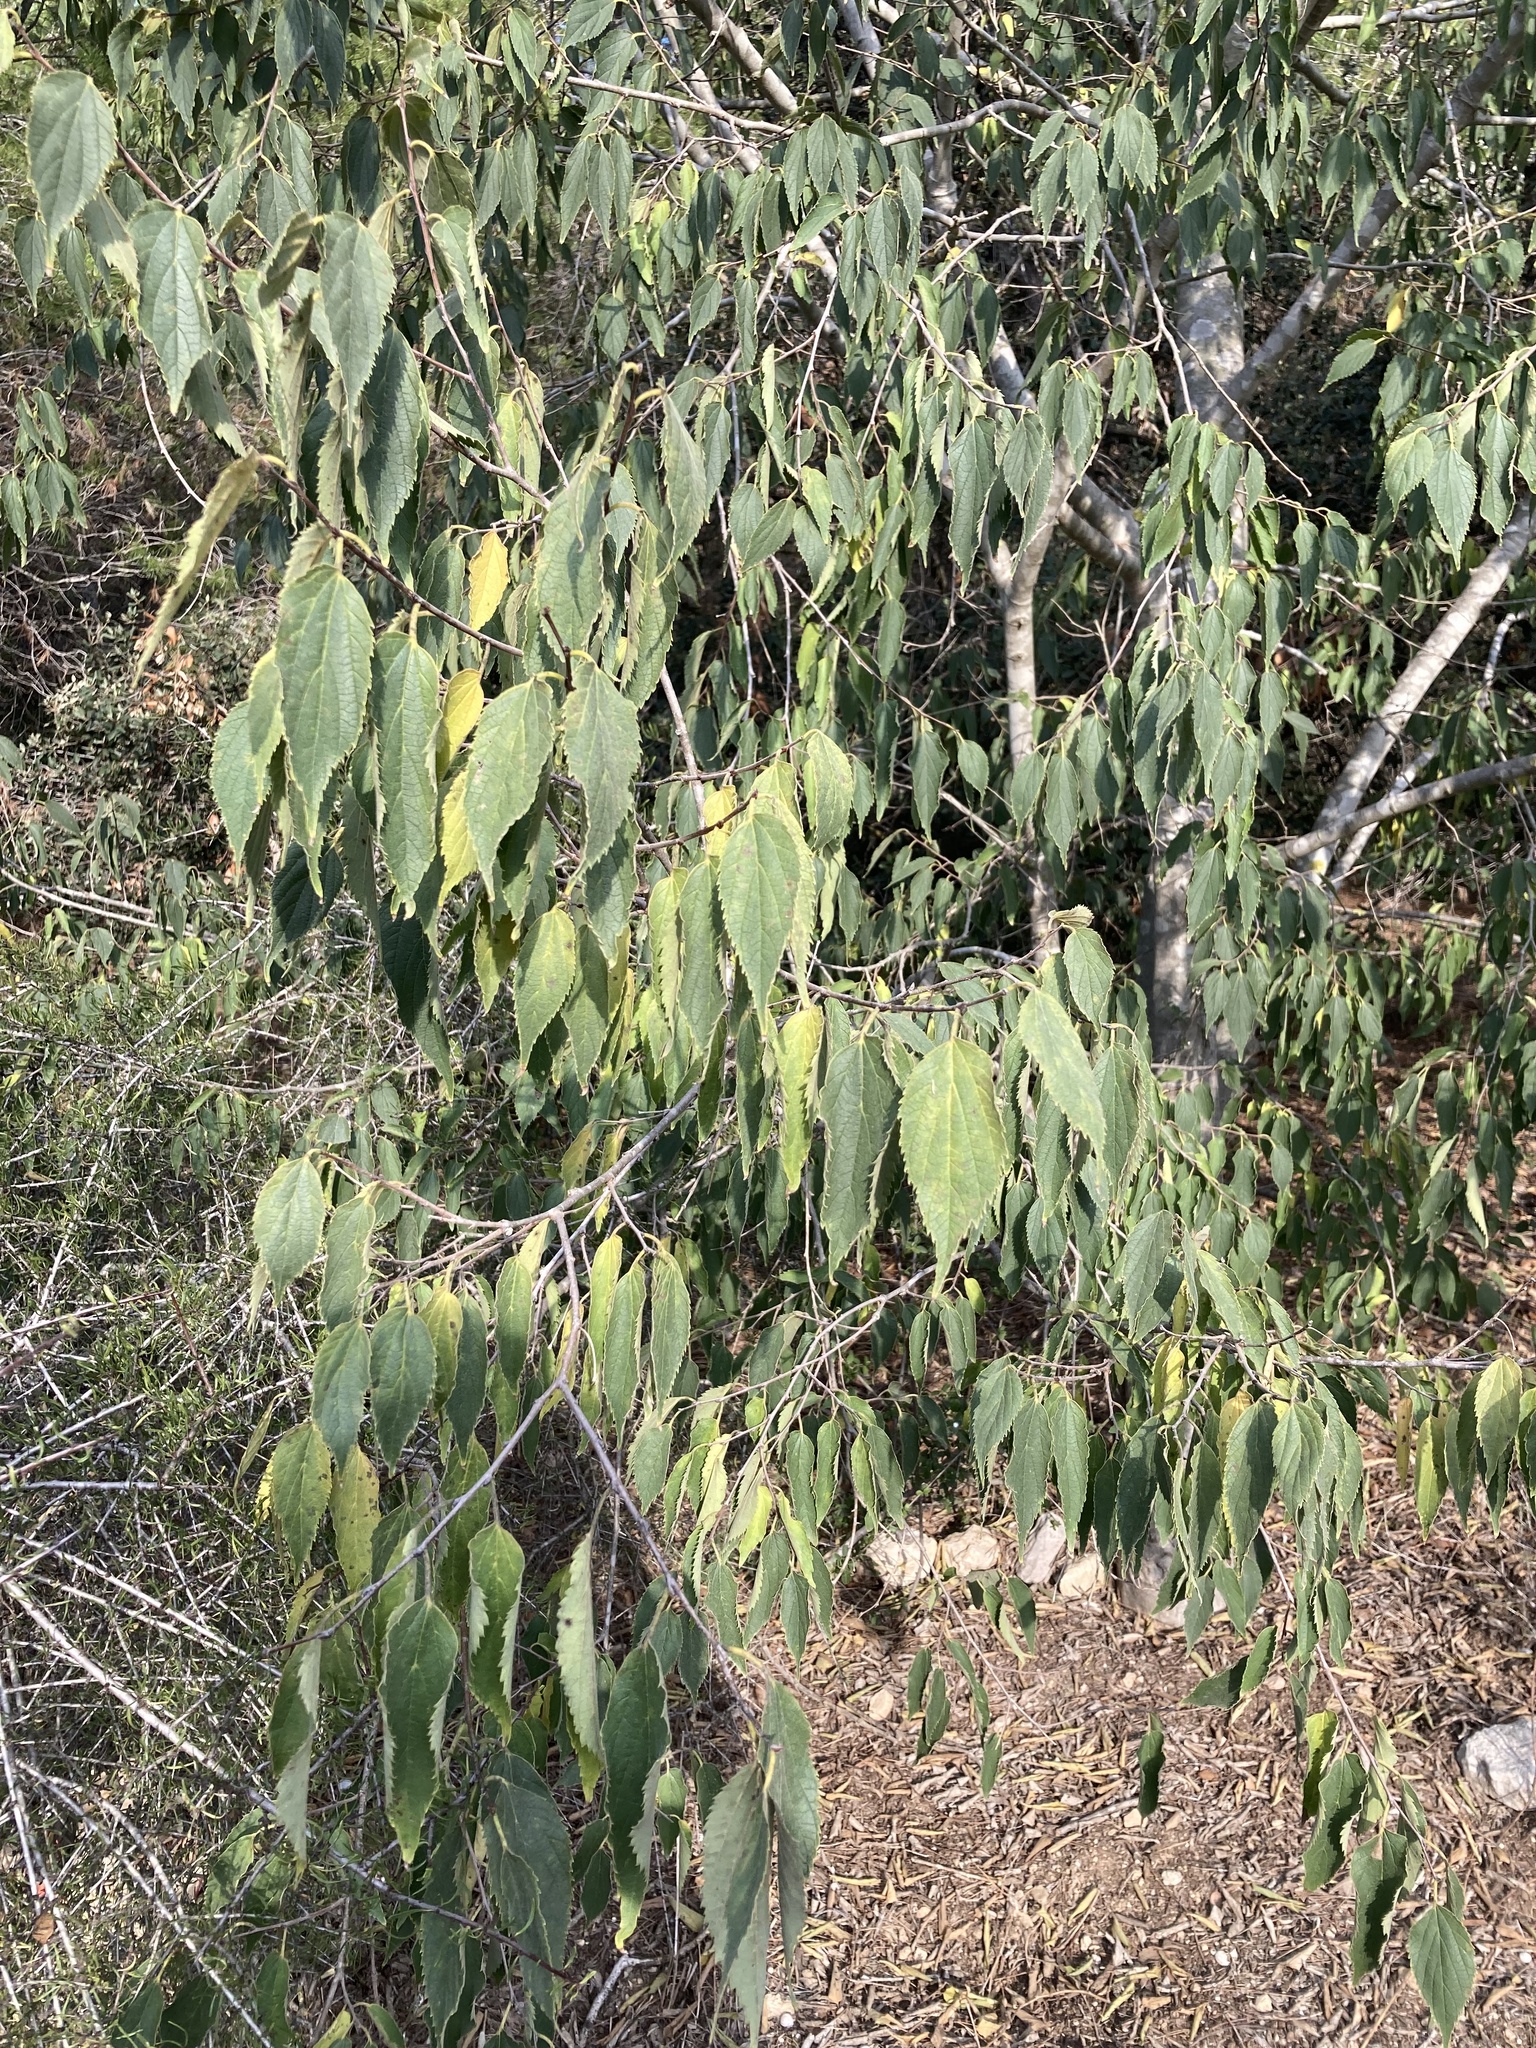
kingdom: Plantae
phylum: Tracheophyta
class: Magnoliopsida
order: Rosales
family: Cannabaceae
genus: Celtis
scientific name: Celtis australis
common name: European hackberry
